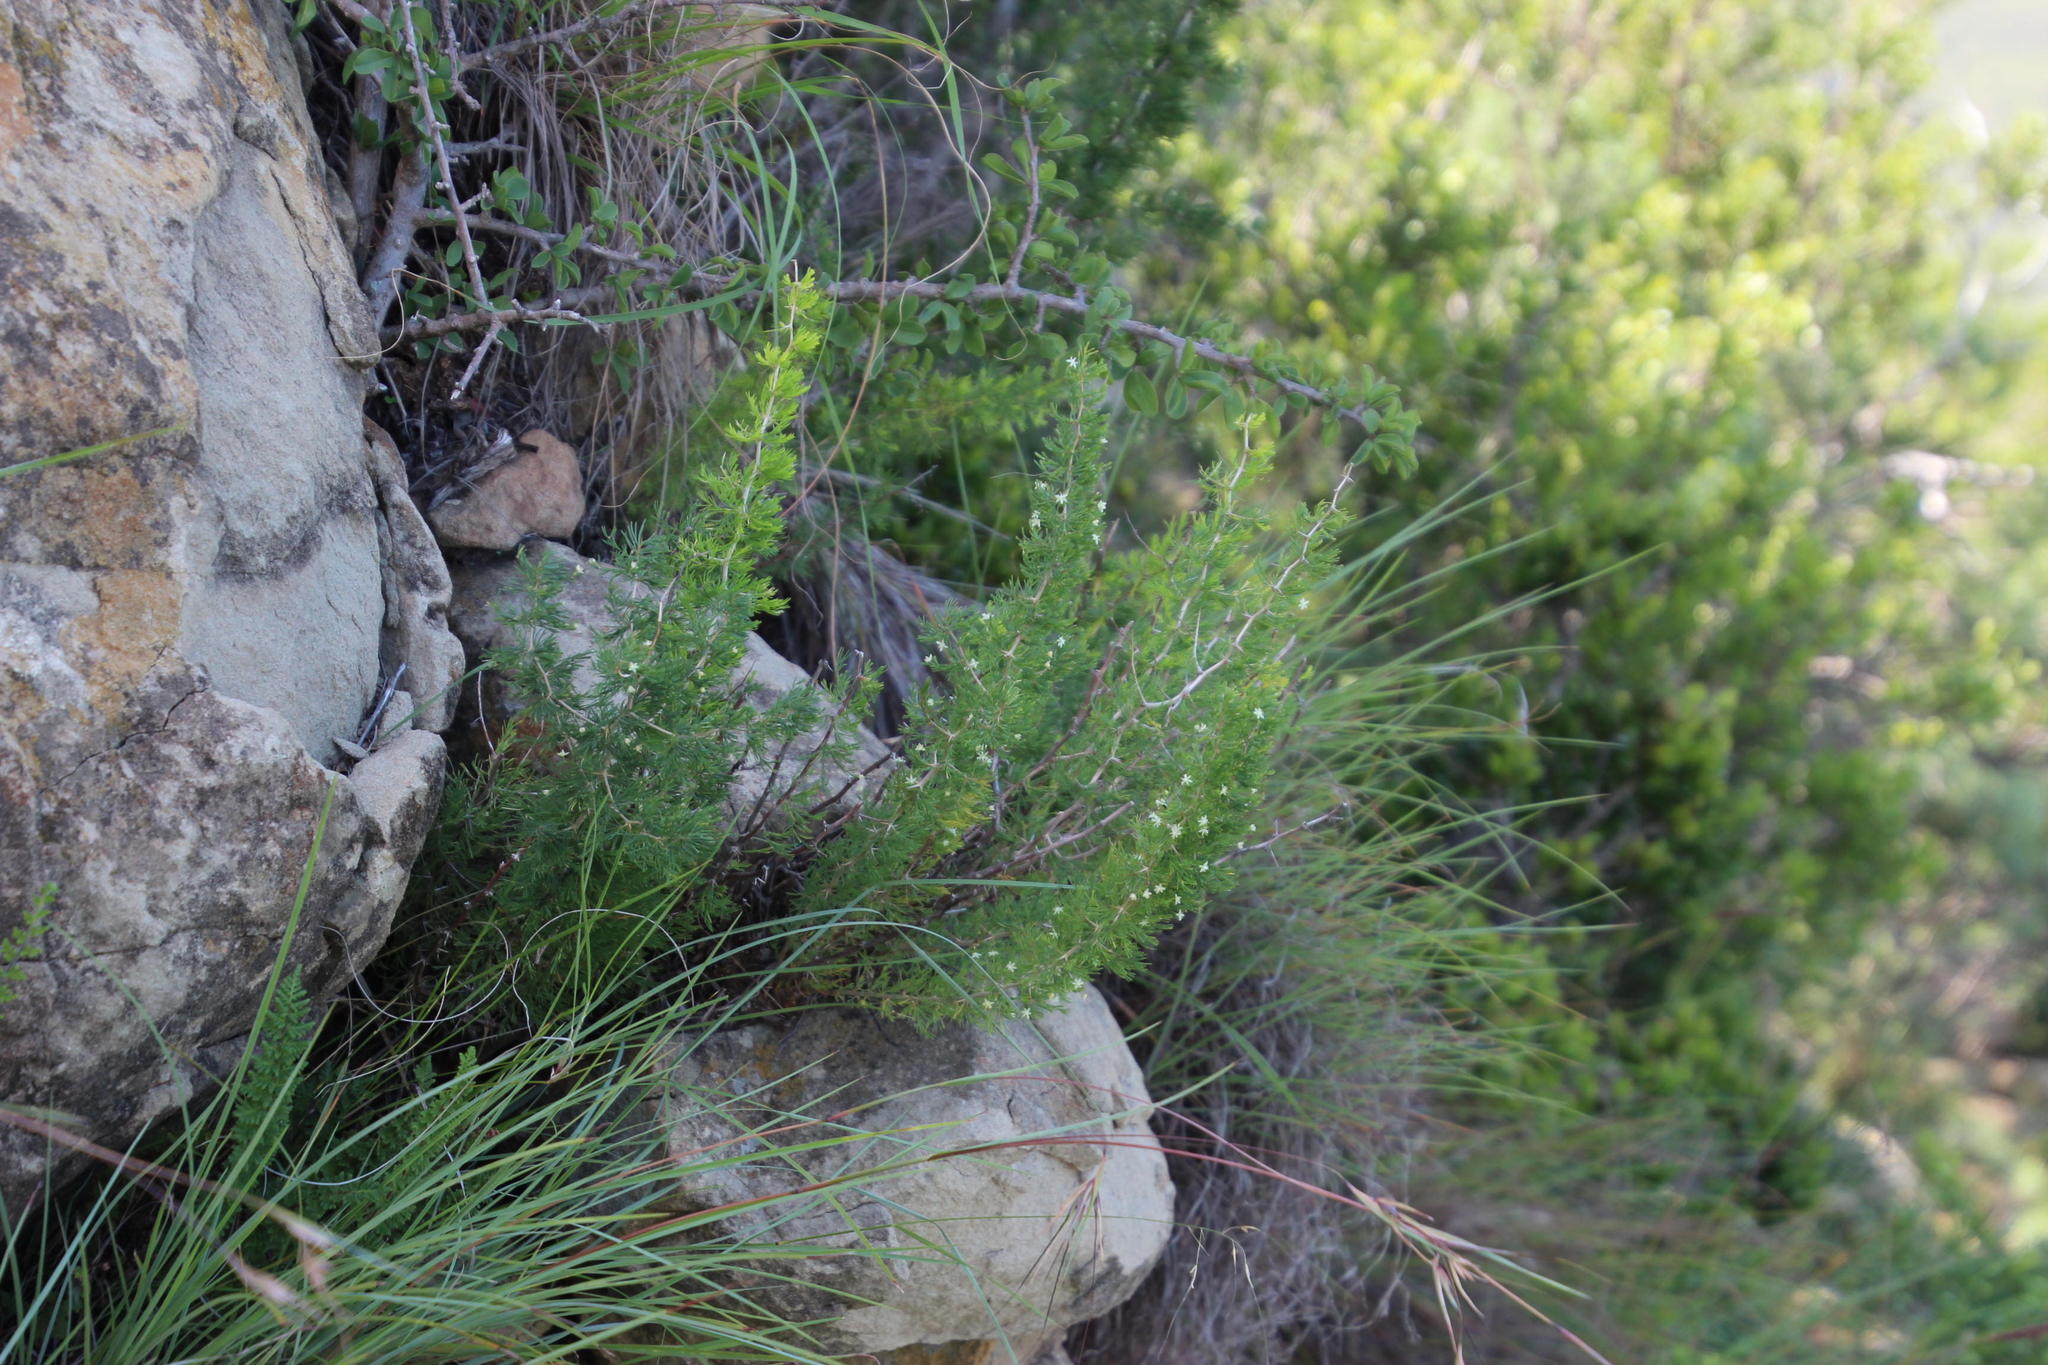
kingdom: Plantae
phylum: Tracheophyta
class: Liliopsida
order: Asparagales
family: Asparagaceae
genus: Asparagus
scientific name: Asparagus suaveolens
